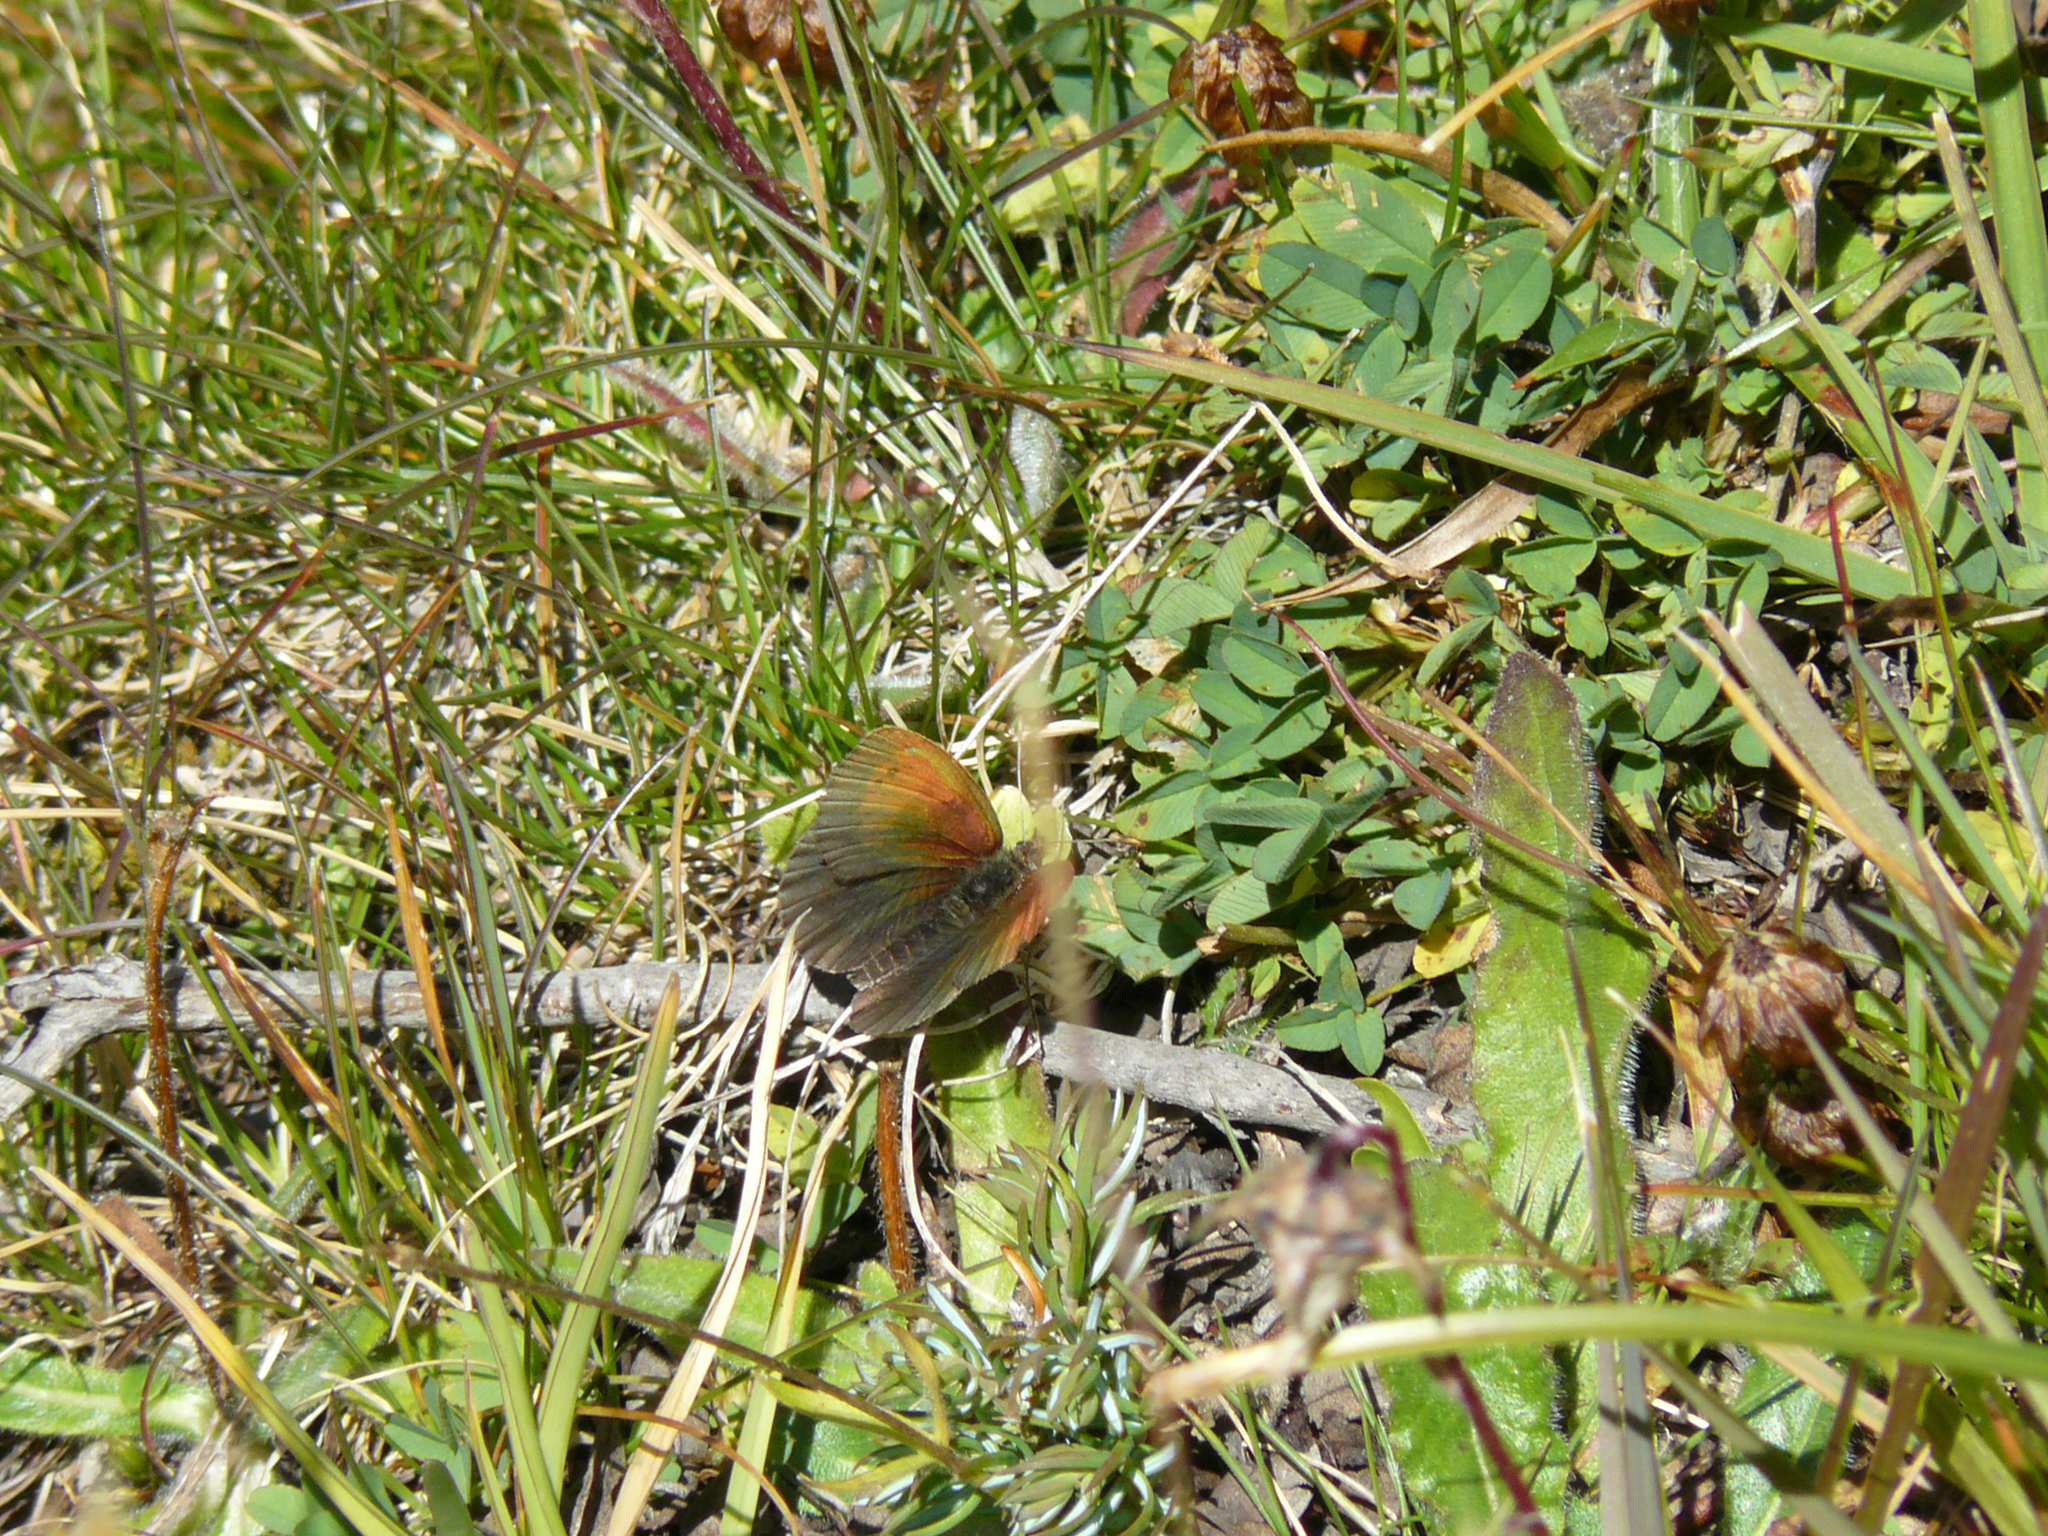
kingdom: Animalia
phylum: Arthropoda
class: Insecta
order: Lepidoptera
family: Nymphalidae
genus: Erebia
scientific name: Erebia tyndarus
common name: Swiss brassy ringlet
